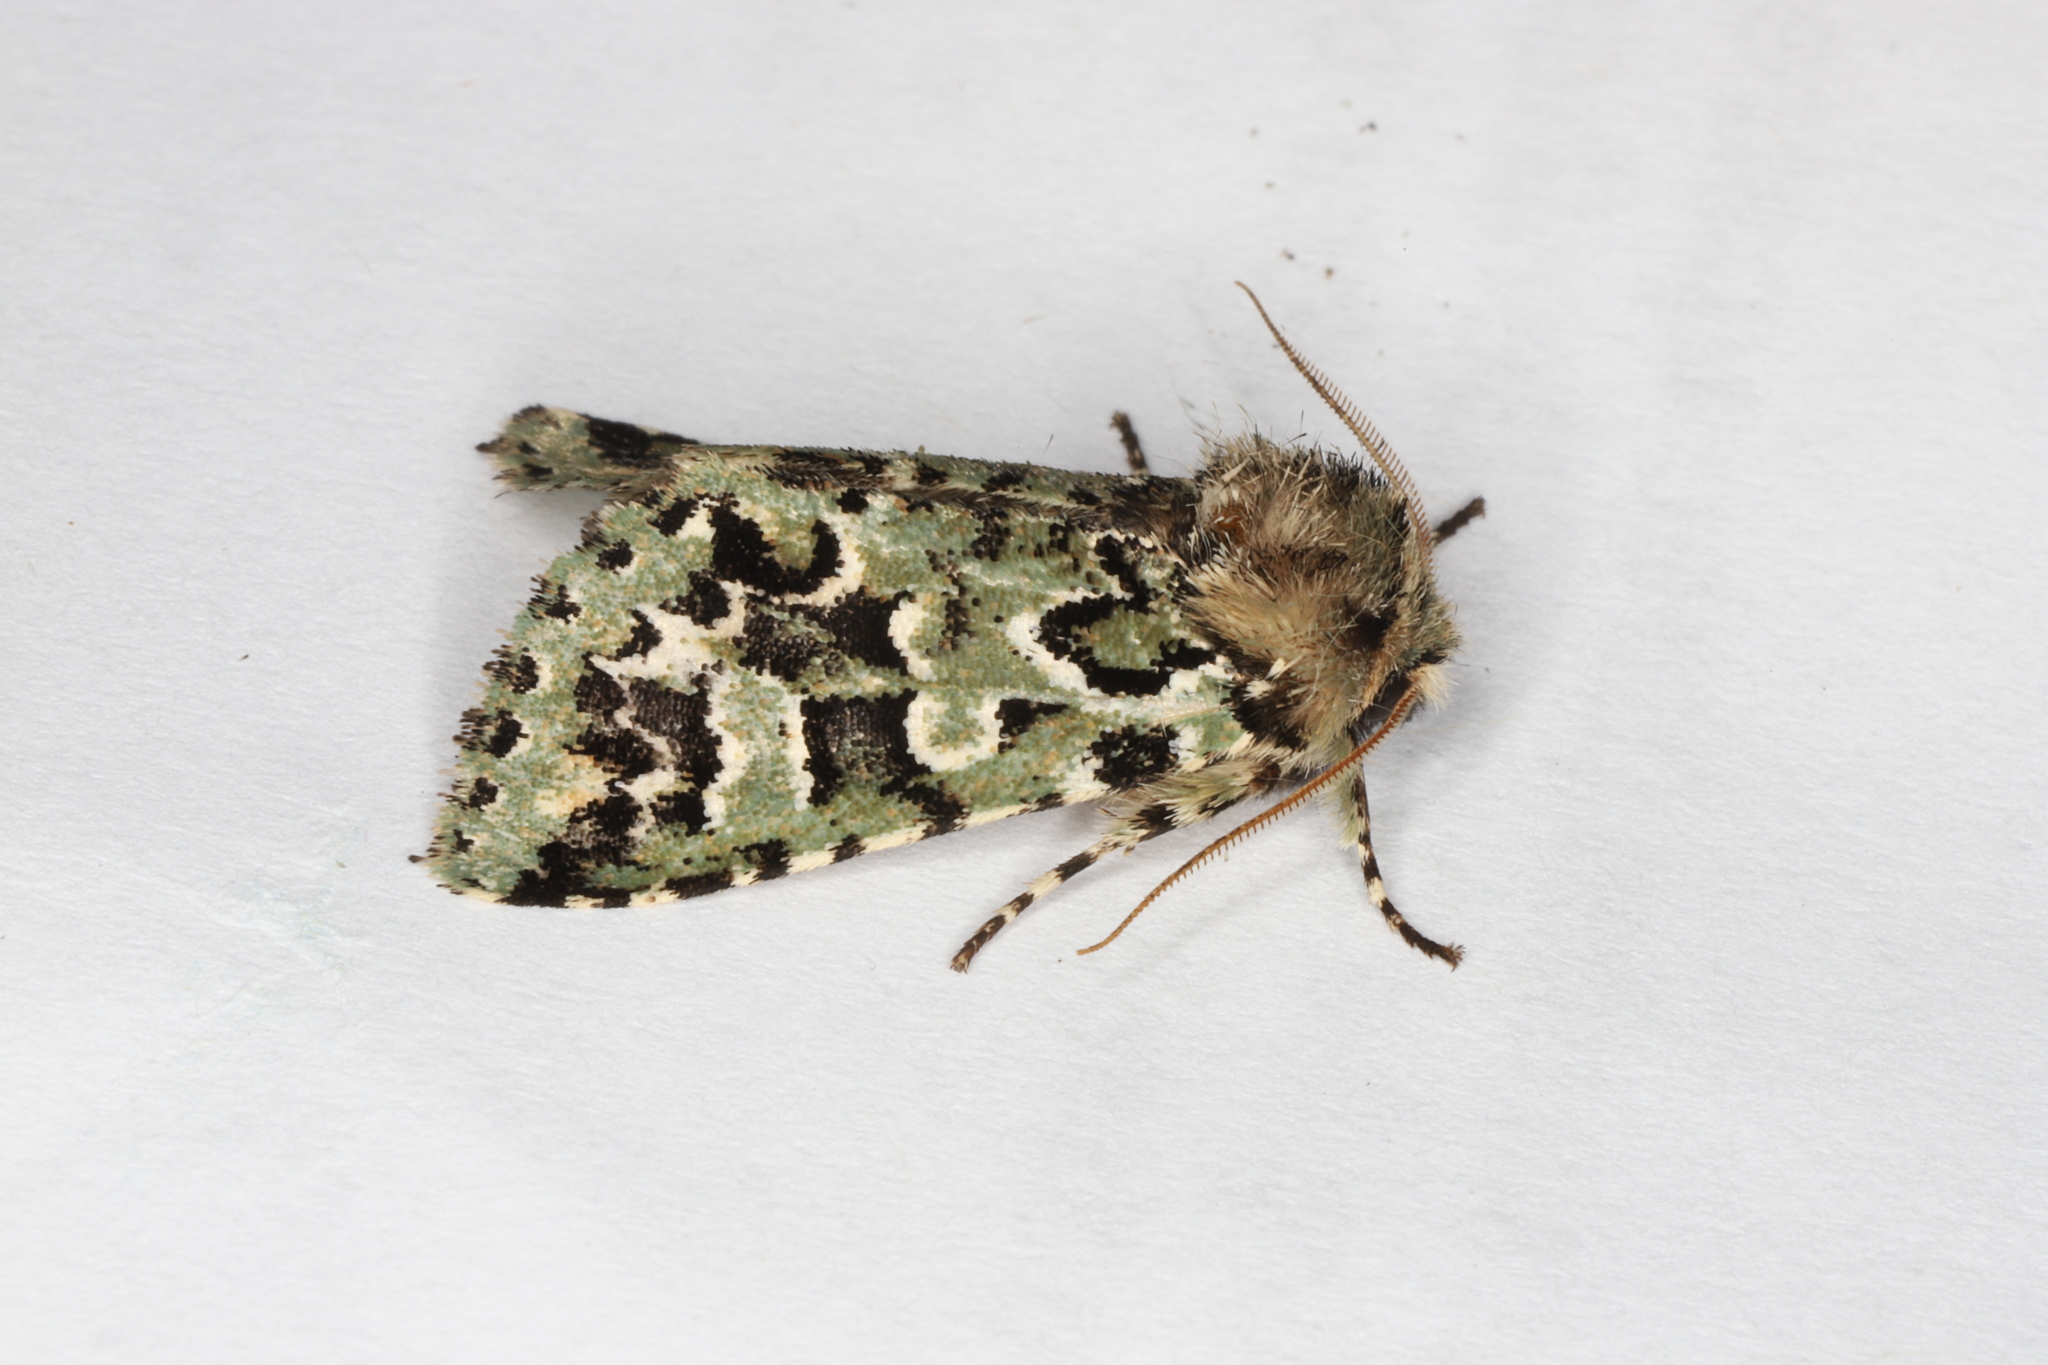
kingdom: Animalia
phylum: Arthropoda
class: Insecta
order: Lepidoptera
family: Noctuidae
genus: Feralia
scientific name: Feralia comstocki
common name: Comstock's sallow
